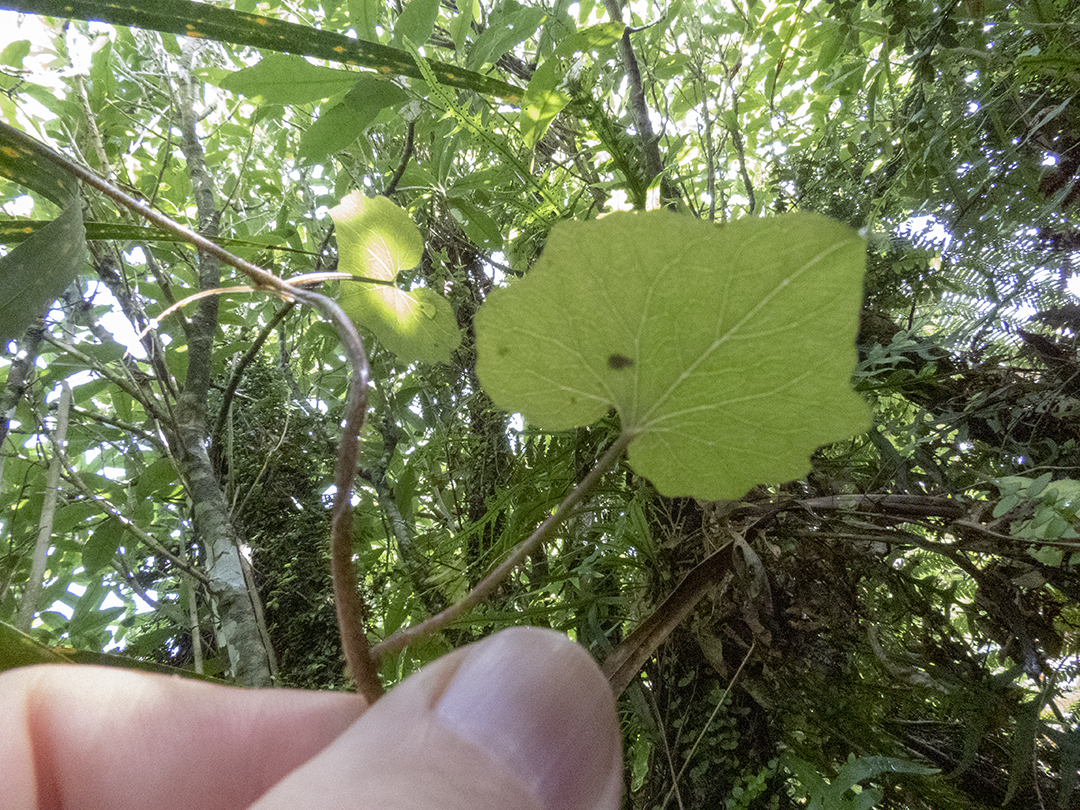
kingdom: Plantae
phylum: Tracheophyta
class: Magnoliopsida
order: Solanales
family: Convolvulaceae
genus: Calystegia
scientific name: Calystegia tuguriorum
